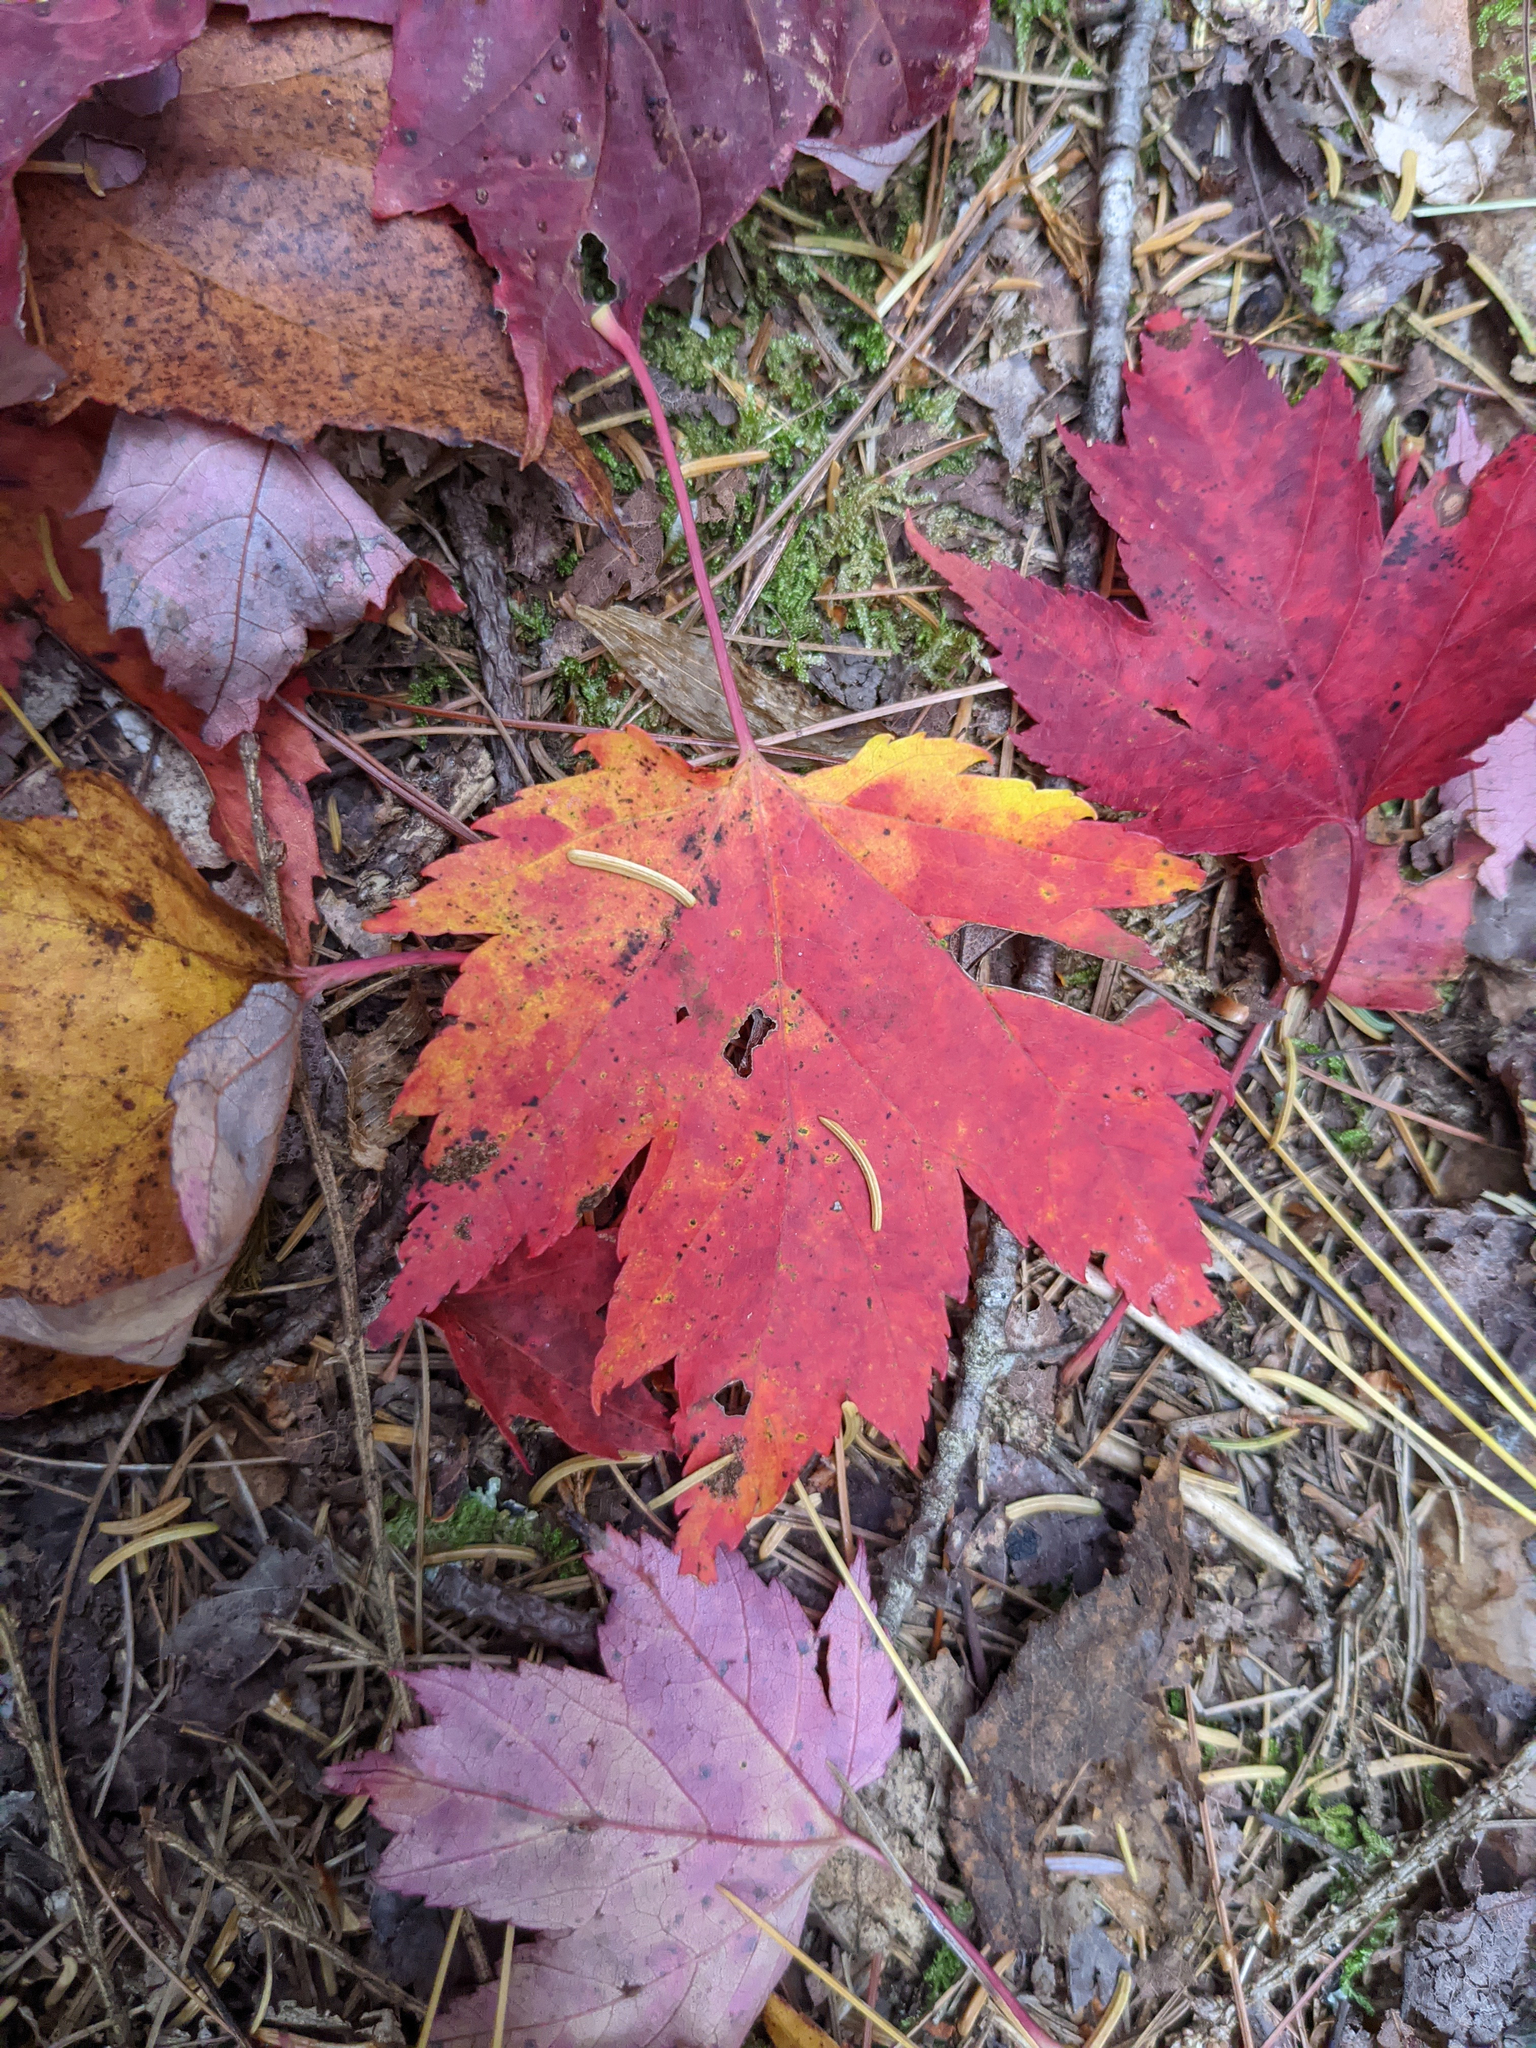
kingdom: Plantae
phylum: Tracheophyta
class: Magnoliopsida
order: Sapindales
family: Sapindaceae
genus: Acer
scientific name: Acer rubrum
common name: Red maple
